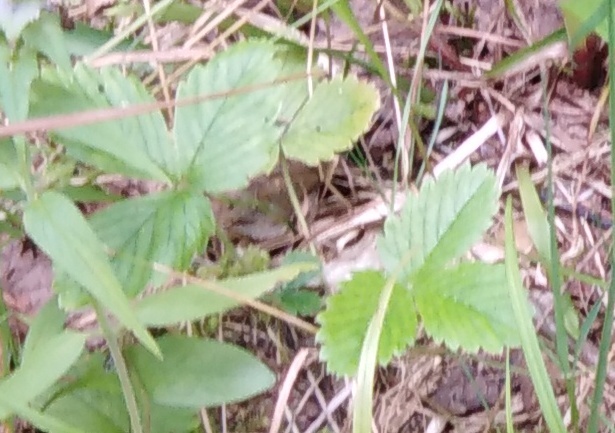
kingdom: Plantae
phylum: Tracheophyta
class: Magnoliopsida
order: Rosales
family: Rosaceae
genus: Fragaria
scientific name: Fragaria vesca
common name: Wild strawberry
